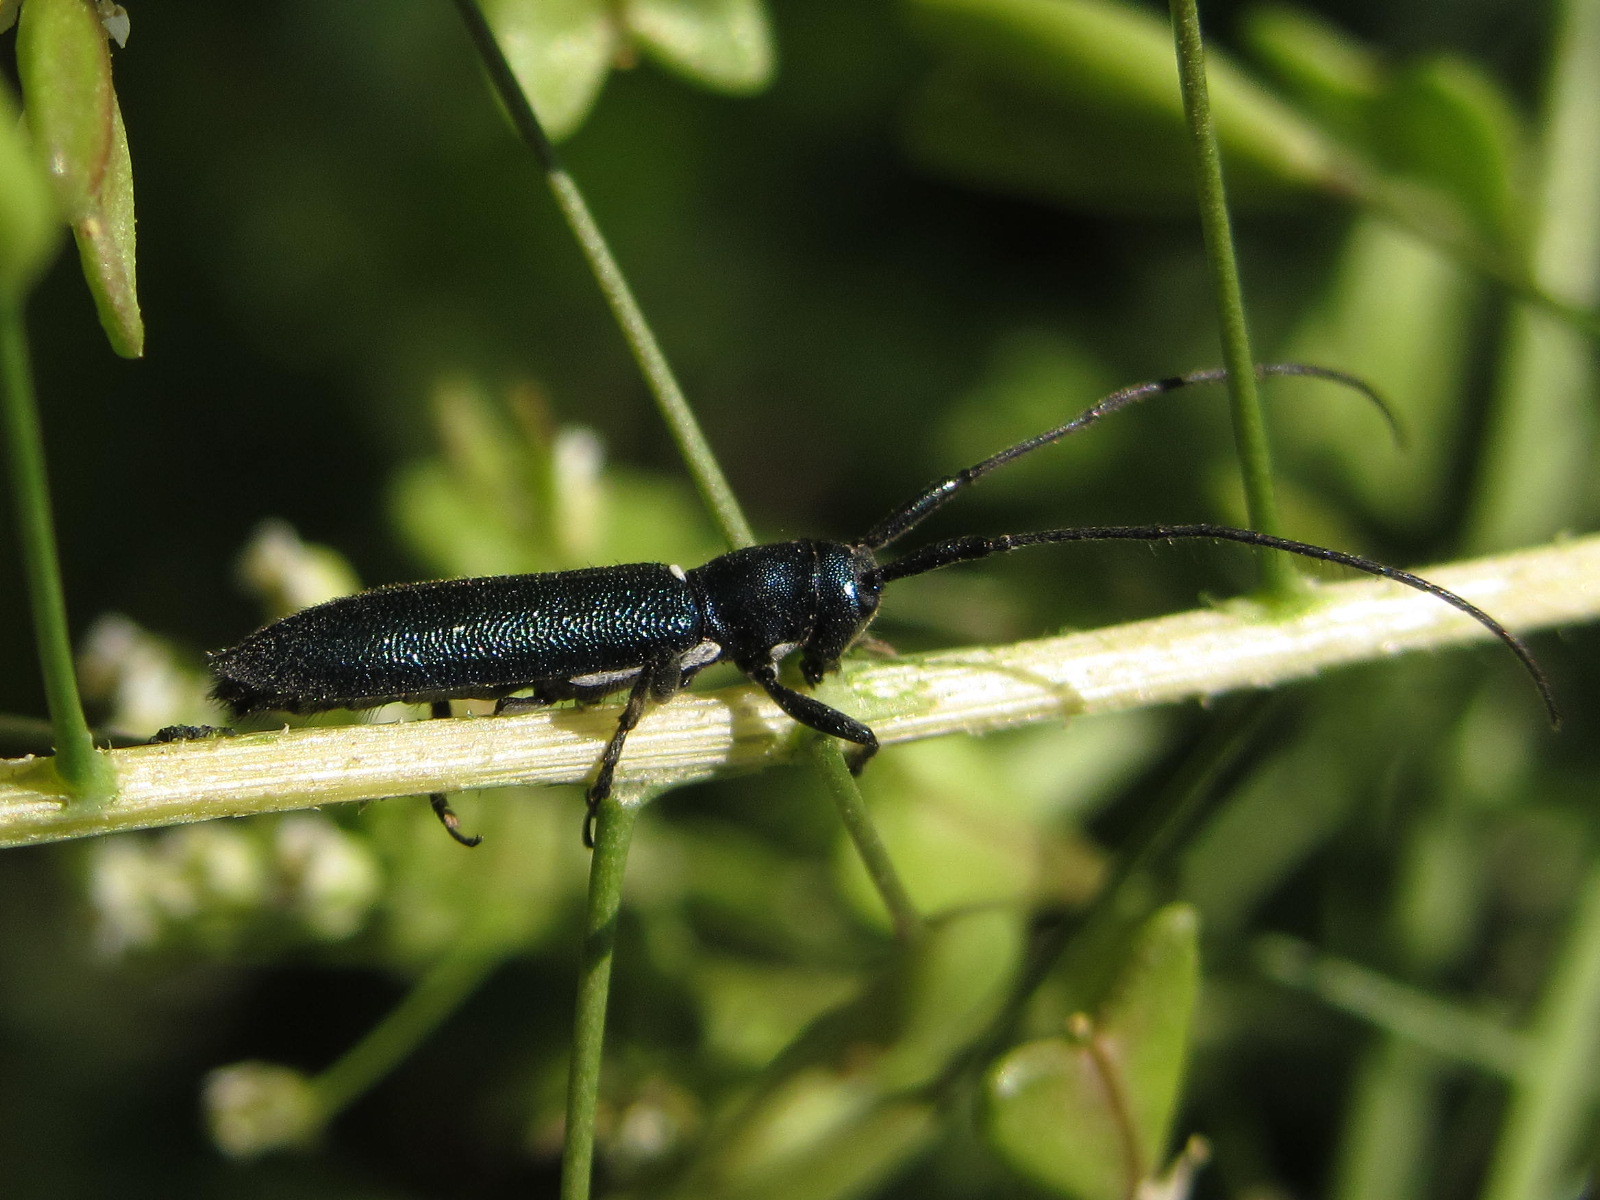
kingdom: Animalia
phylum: Arthropoda
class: Insecta
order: Coleoptera
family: Cerambycidae
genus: Agapanthiola
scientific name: Agapanthiola leucaspis
